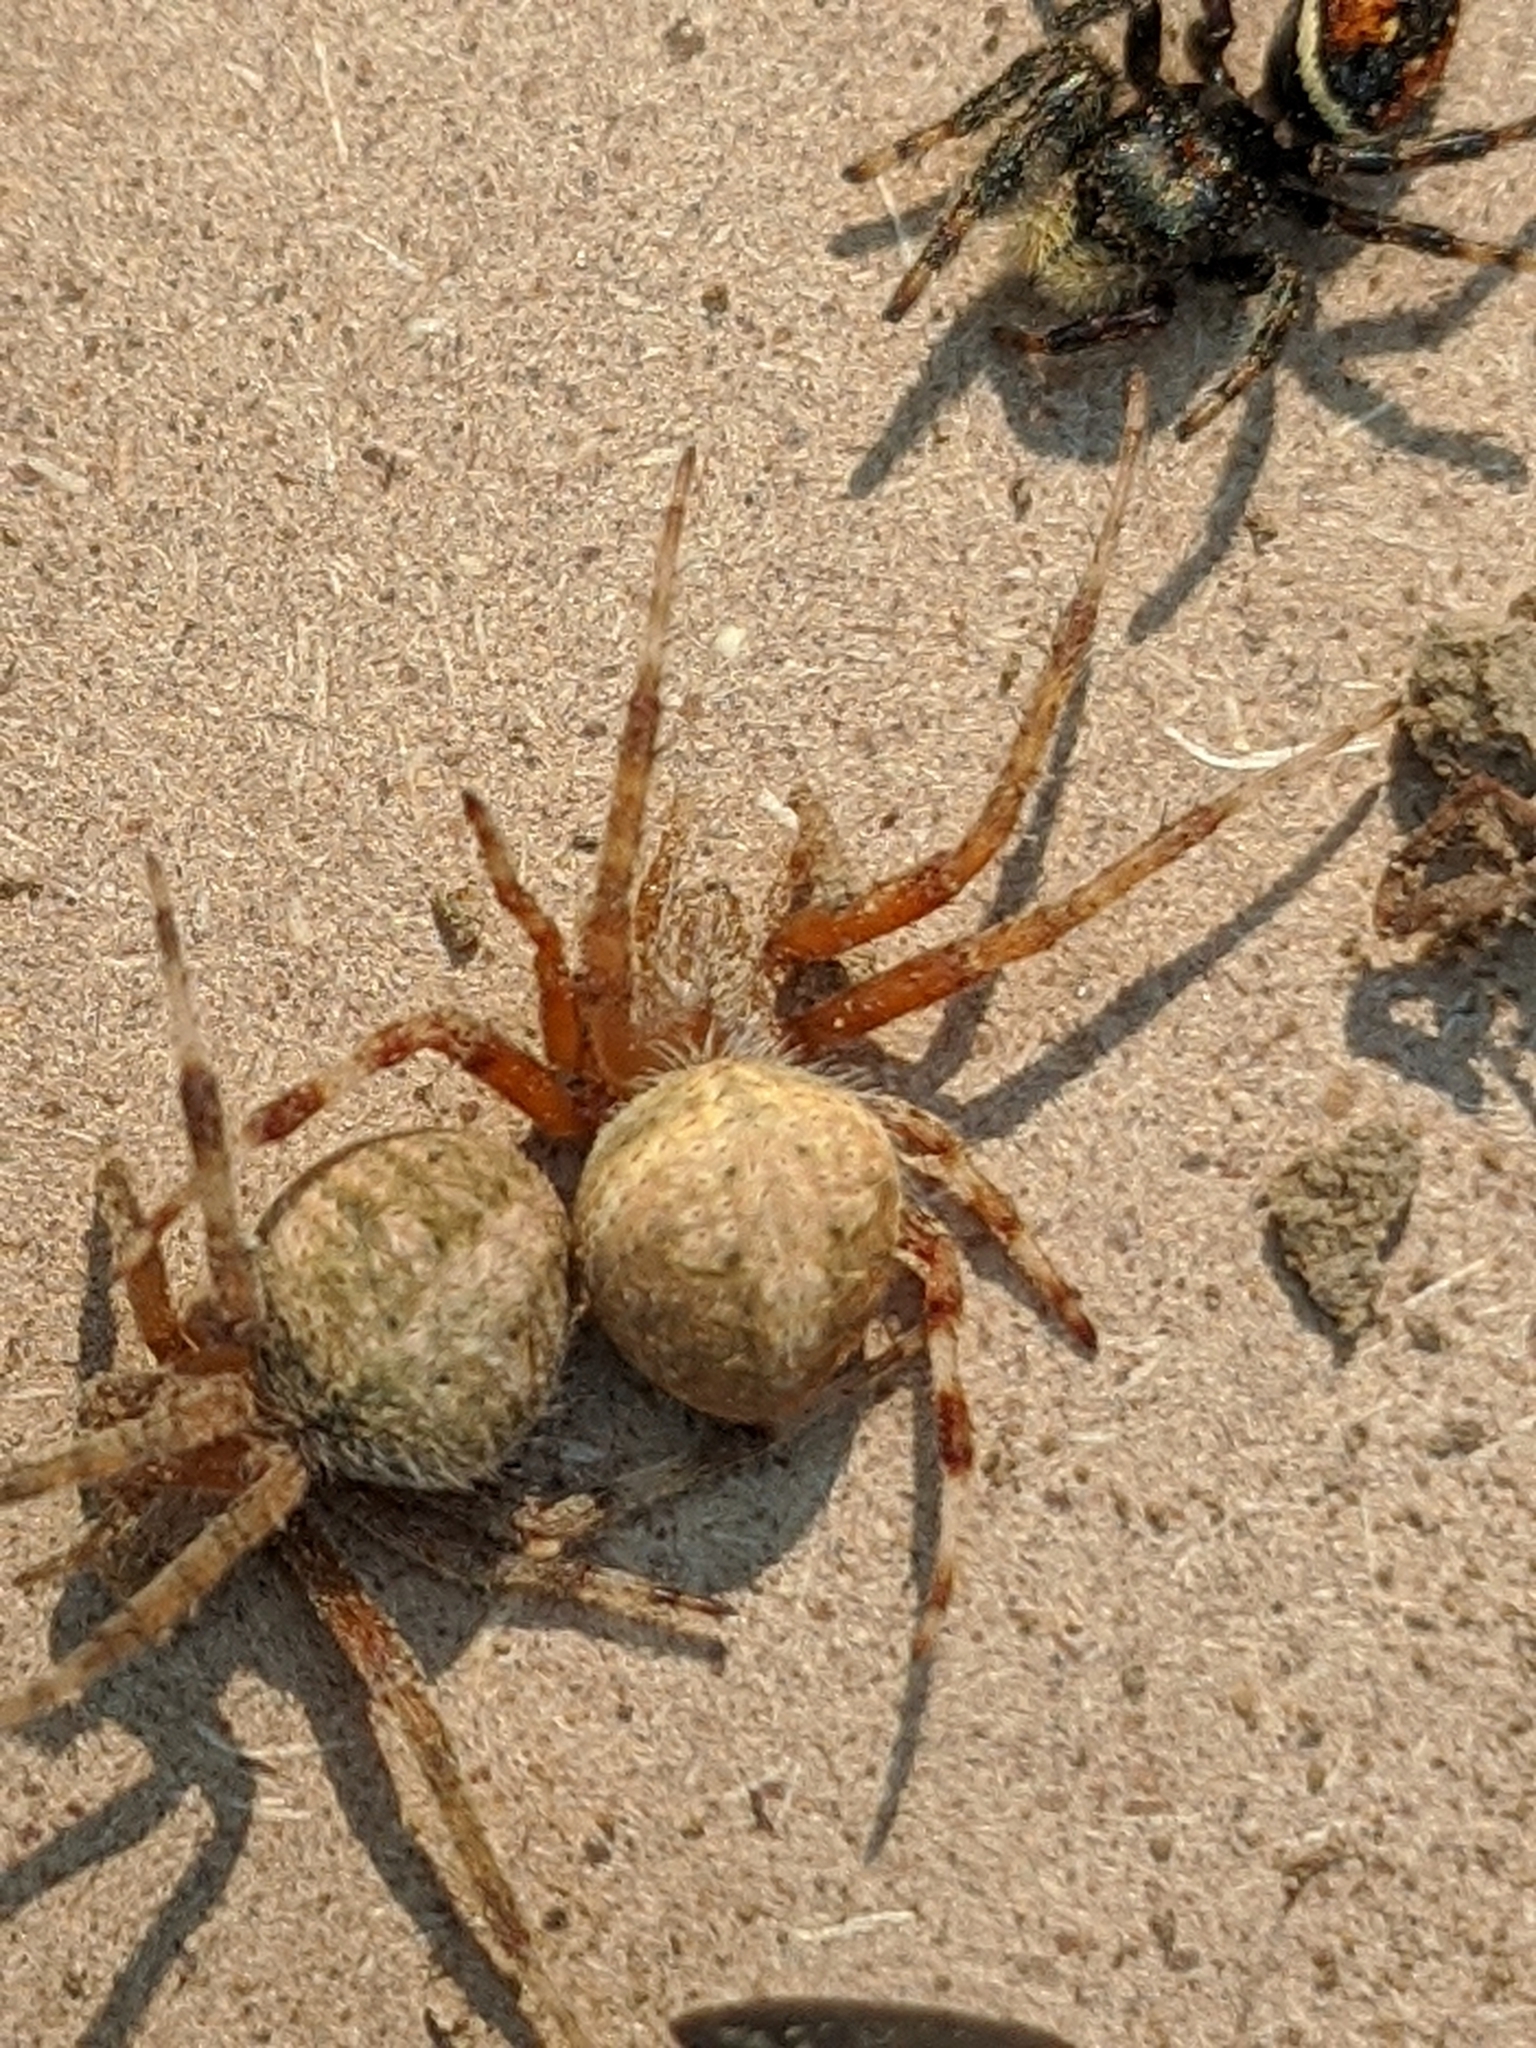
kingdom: Animalia
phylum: Arthropoda
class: Arachnida
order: Araneae
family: Araneidae
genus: Neoscona
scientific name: Neoscona crucifera
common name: Spotted orbweaver
